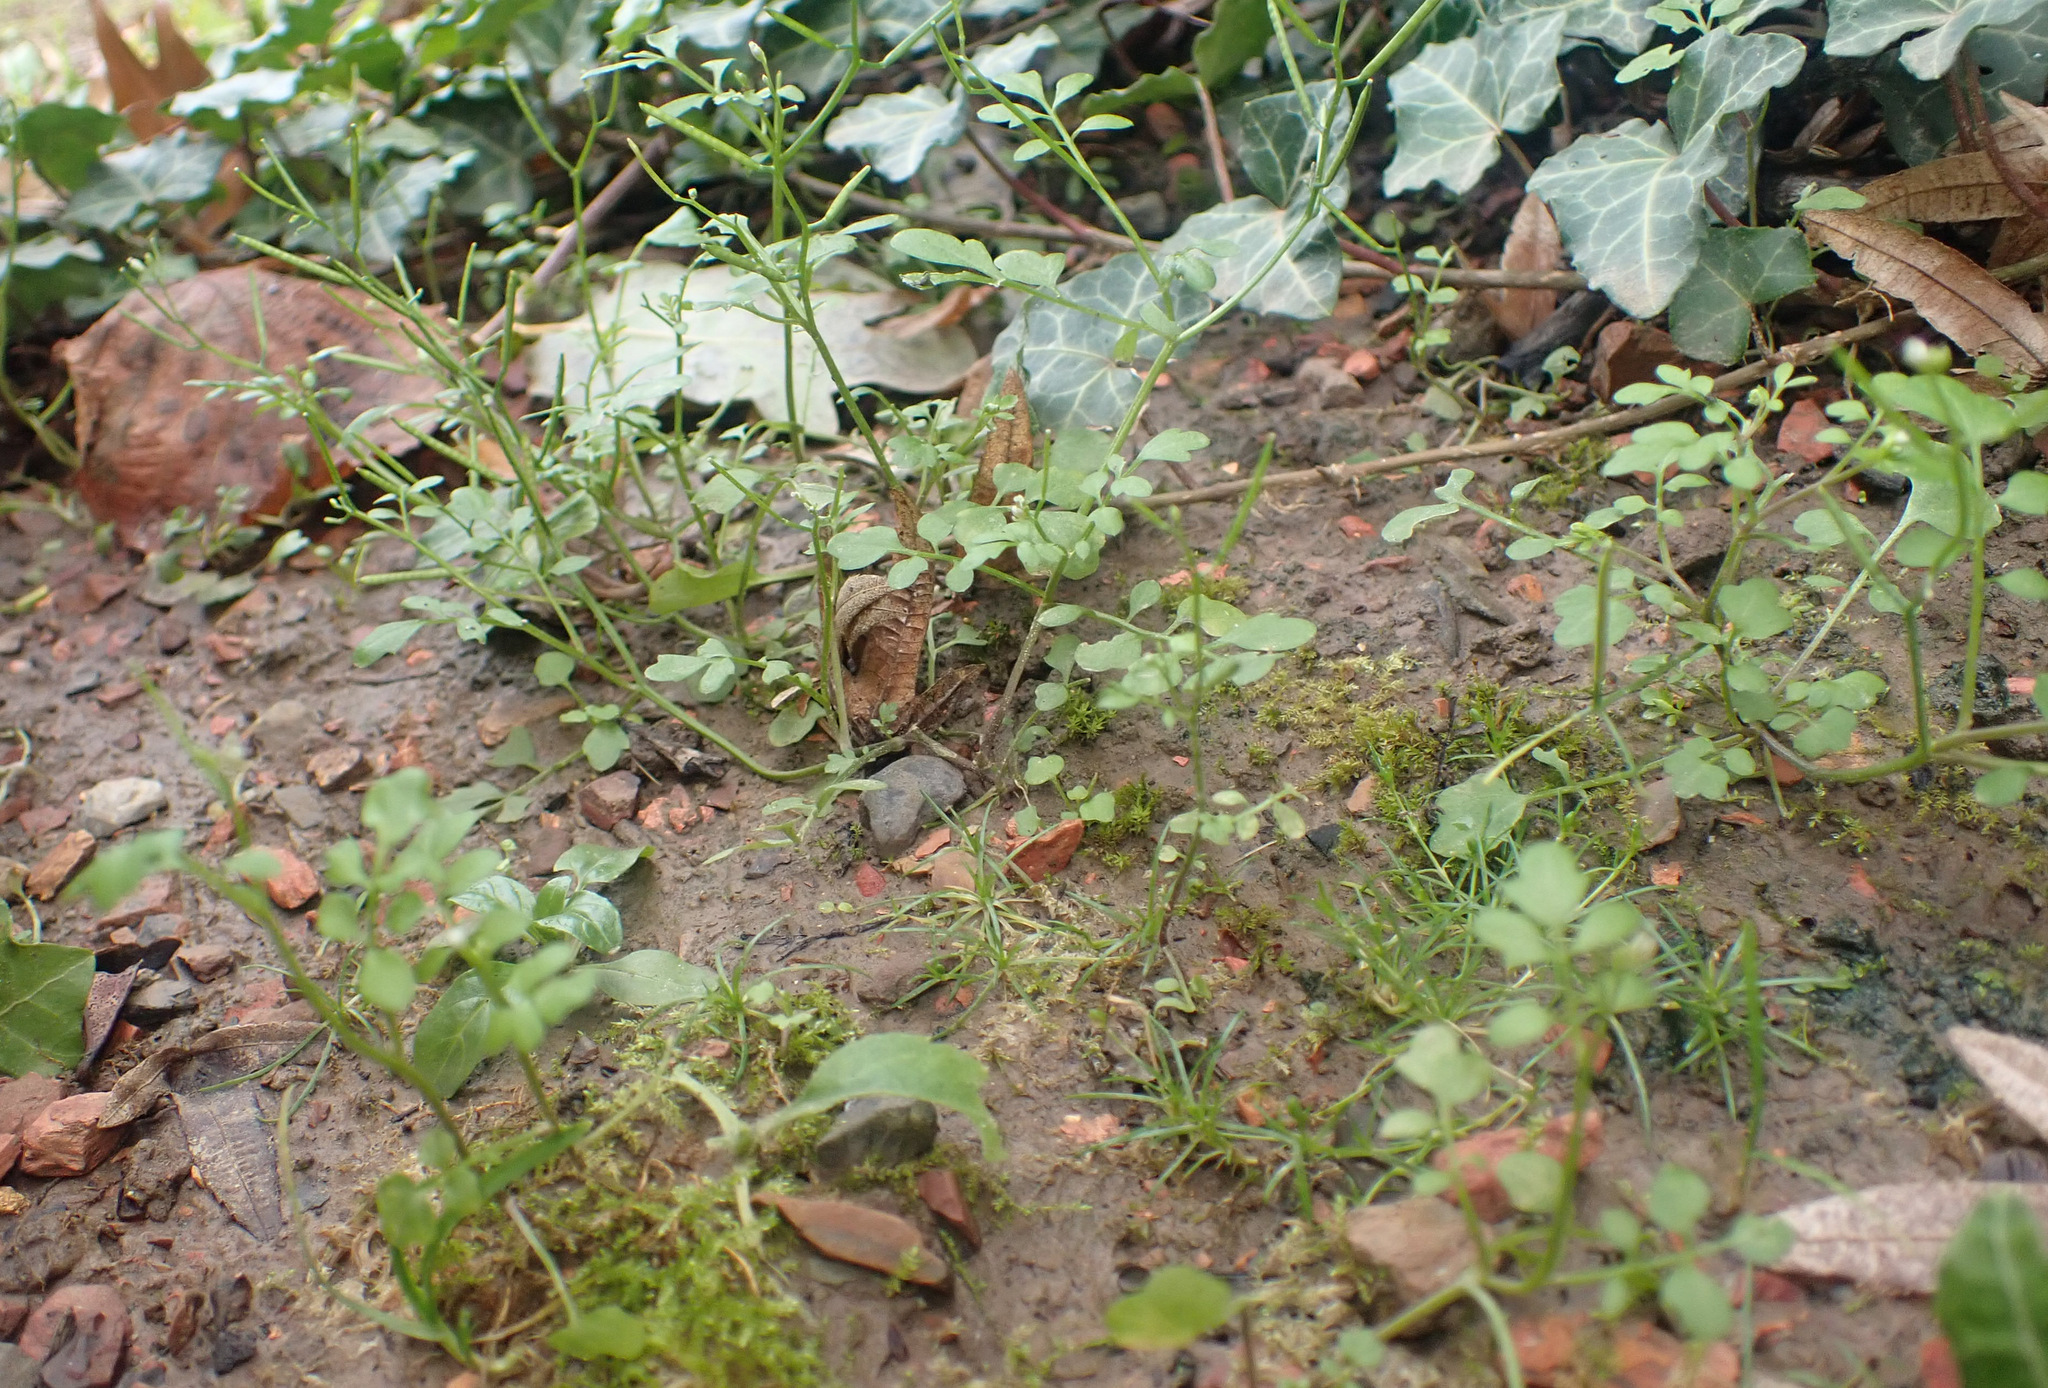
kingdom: Plantae
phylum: Tracheophyta
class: Magnoliopsida
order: Brassicales
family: Brassicaceae
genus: Cardamine
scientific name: Cardamine occulta
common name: Asian wavy bittercress
